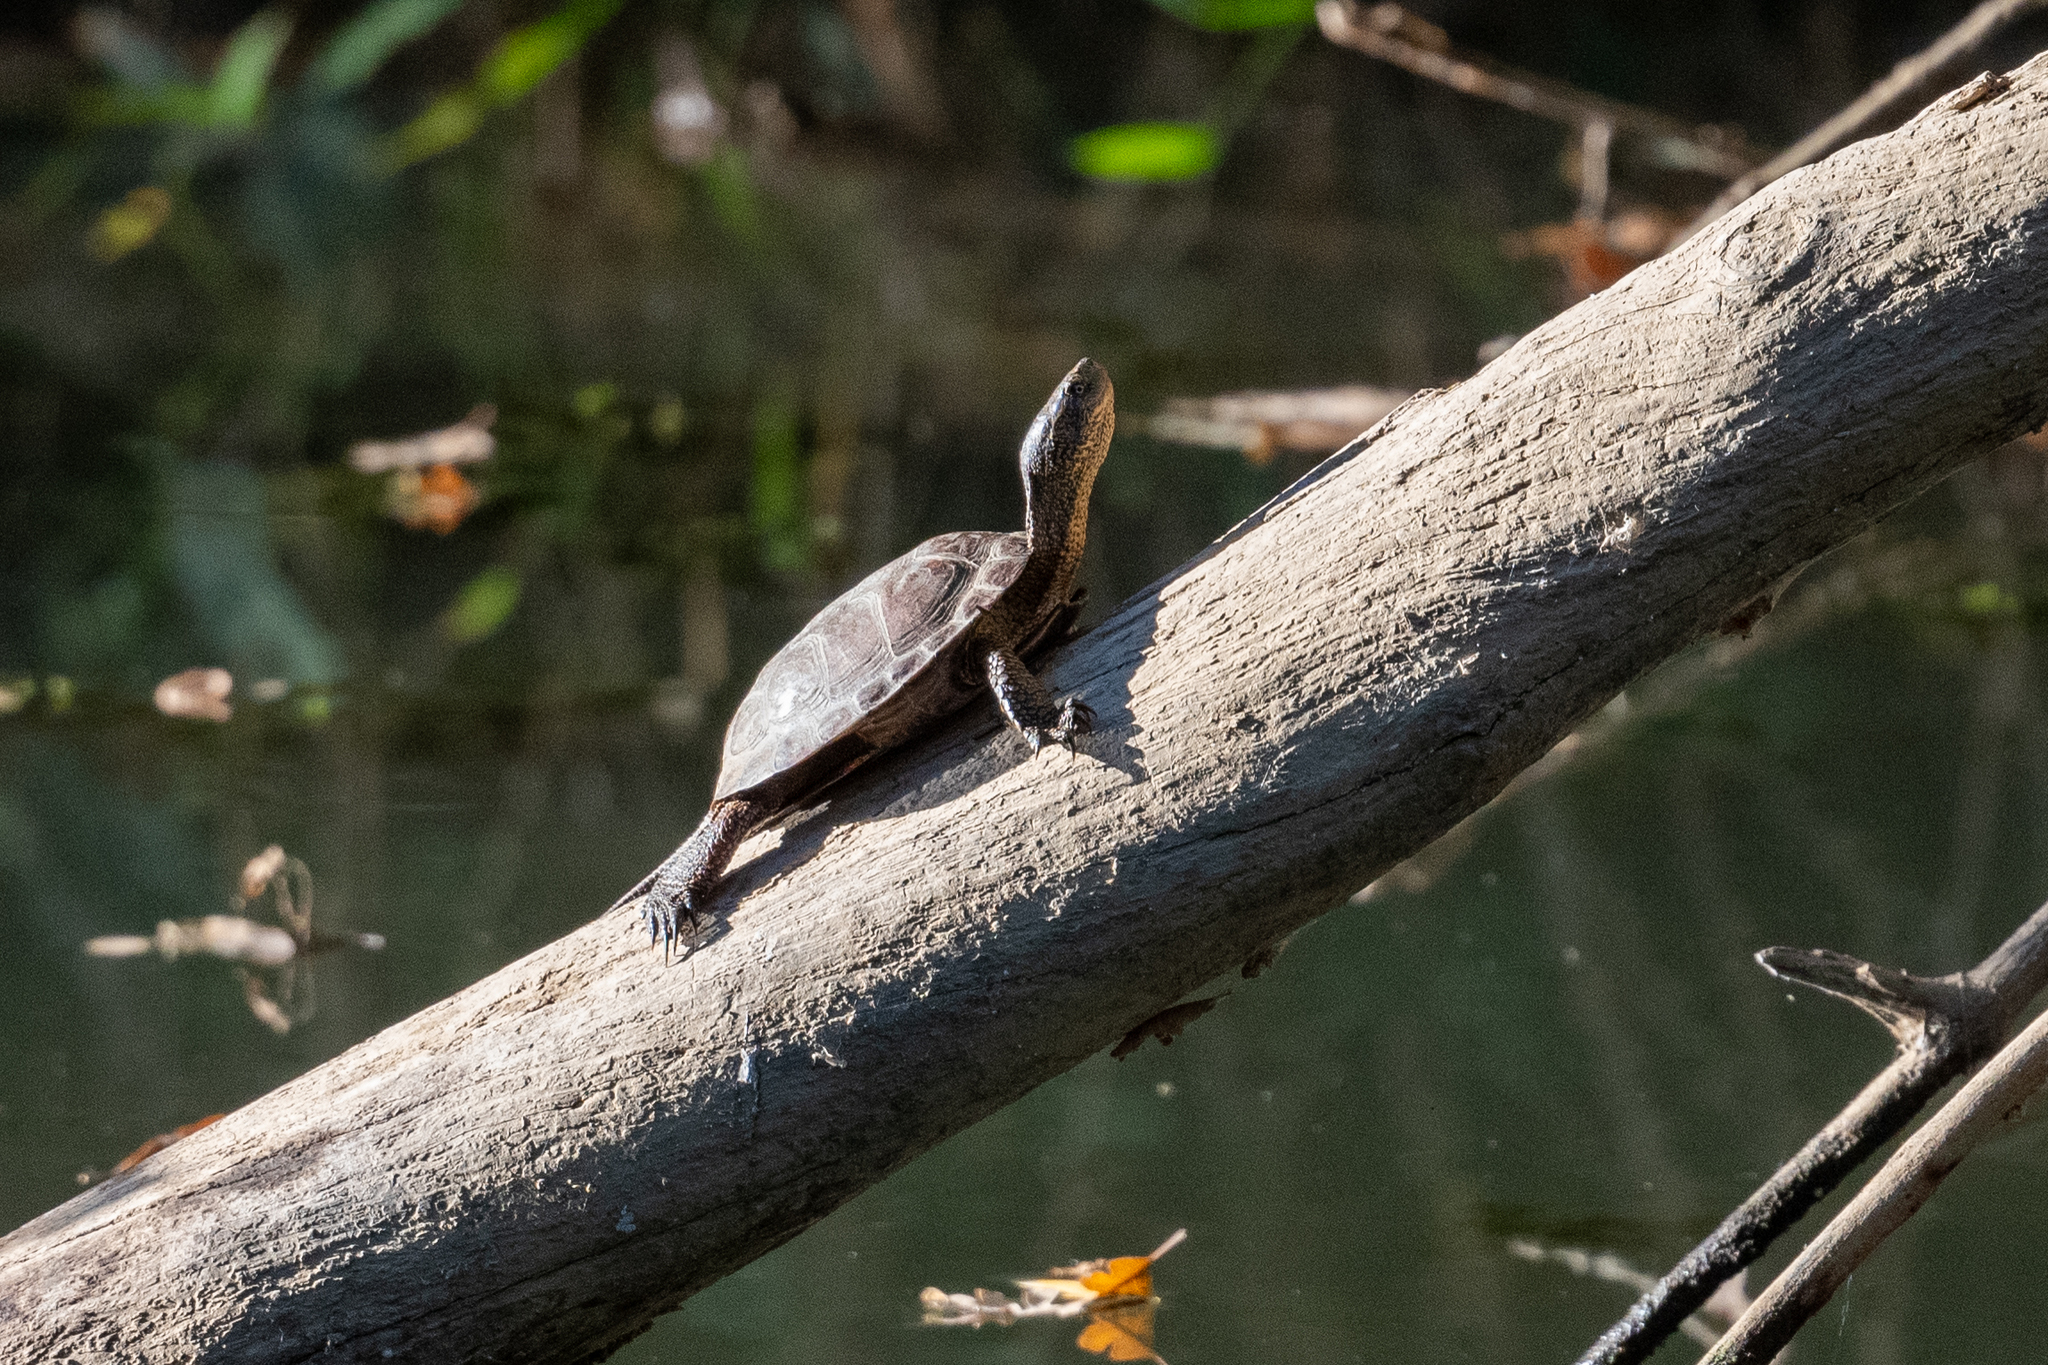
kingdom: Animalia
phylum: Chordata
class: Testudines
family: Emydidae
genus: Actinemys
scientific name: Actinemys marmorata
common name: Western pond turtle
